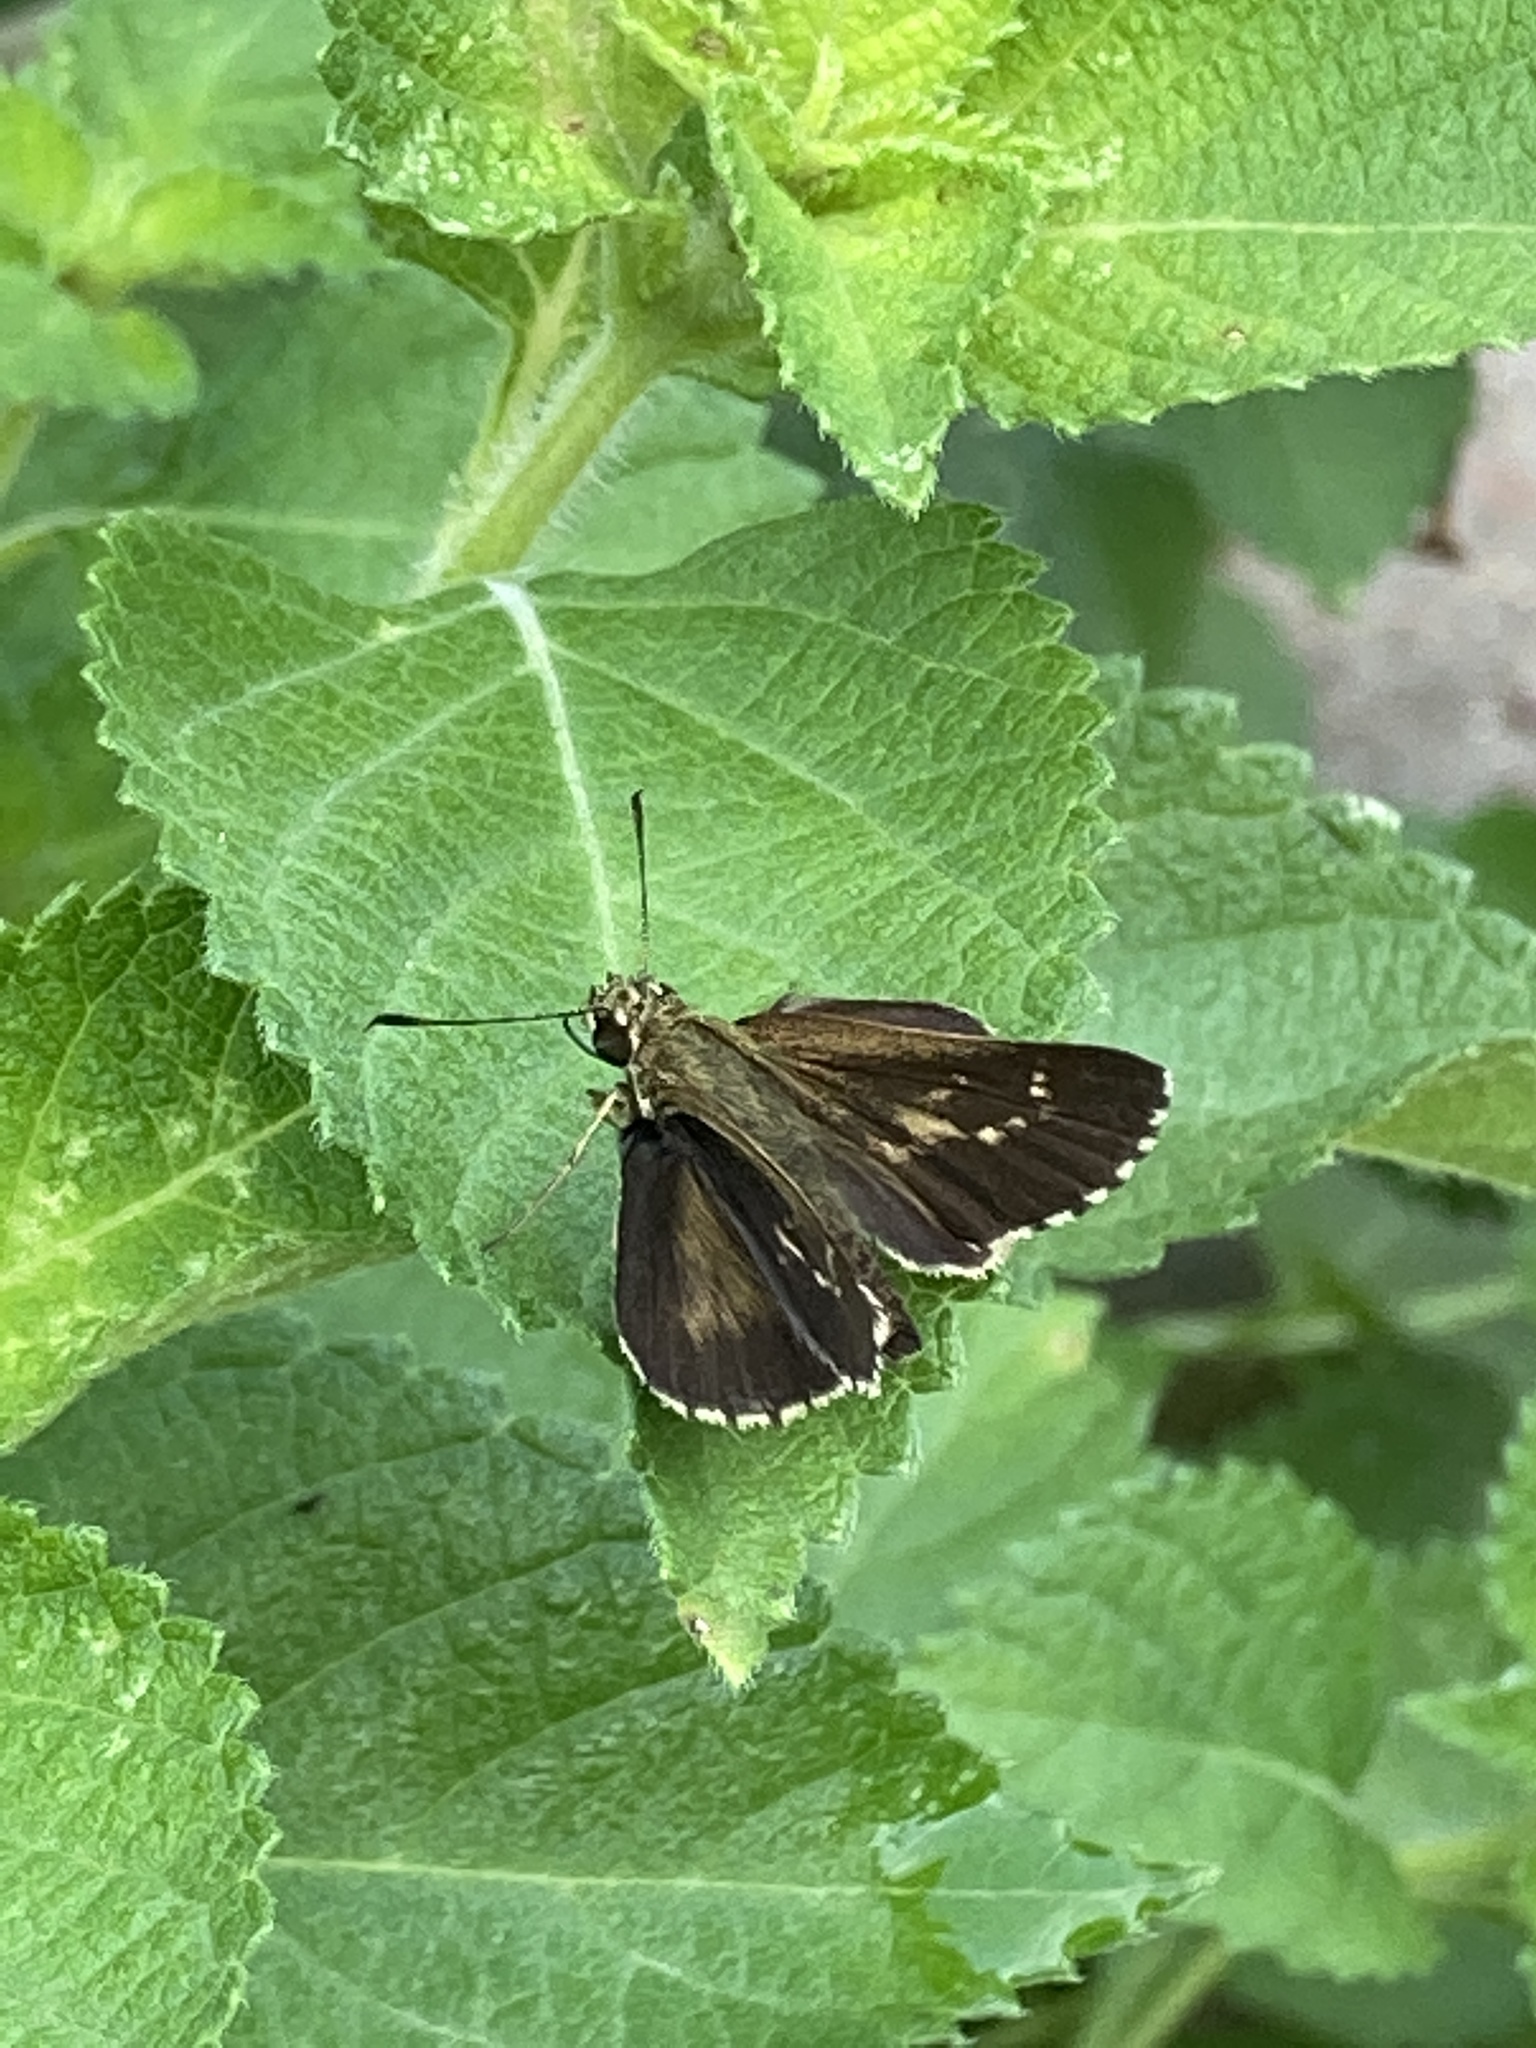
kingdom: Animalia
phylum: Arthropoda
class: Insecta
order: Lepidoptera
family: Hesperiidae
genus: Mastor
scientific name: Mastor aesculapius
